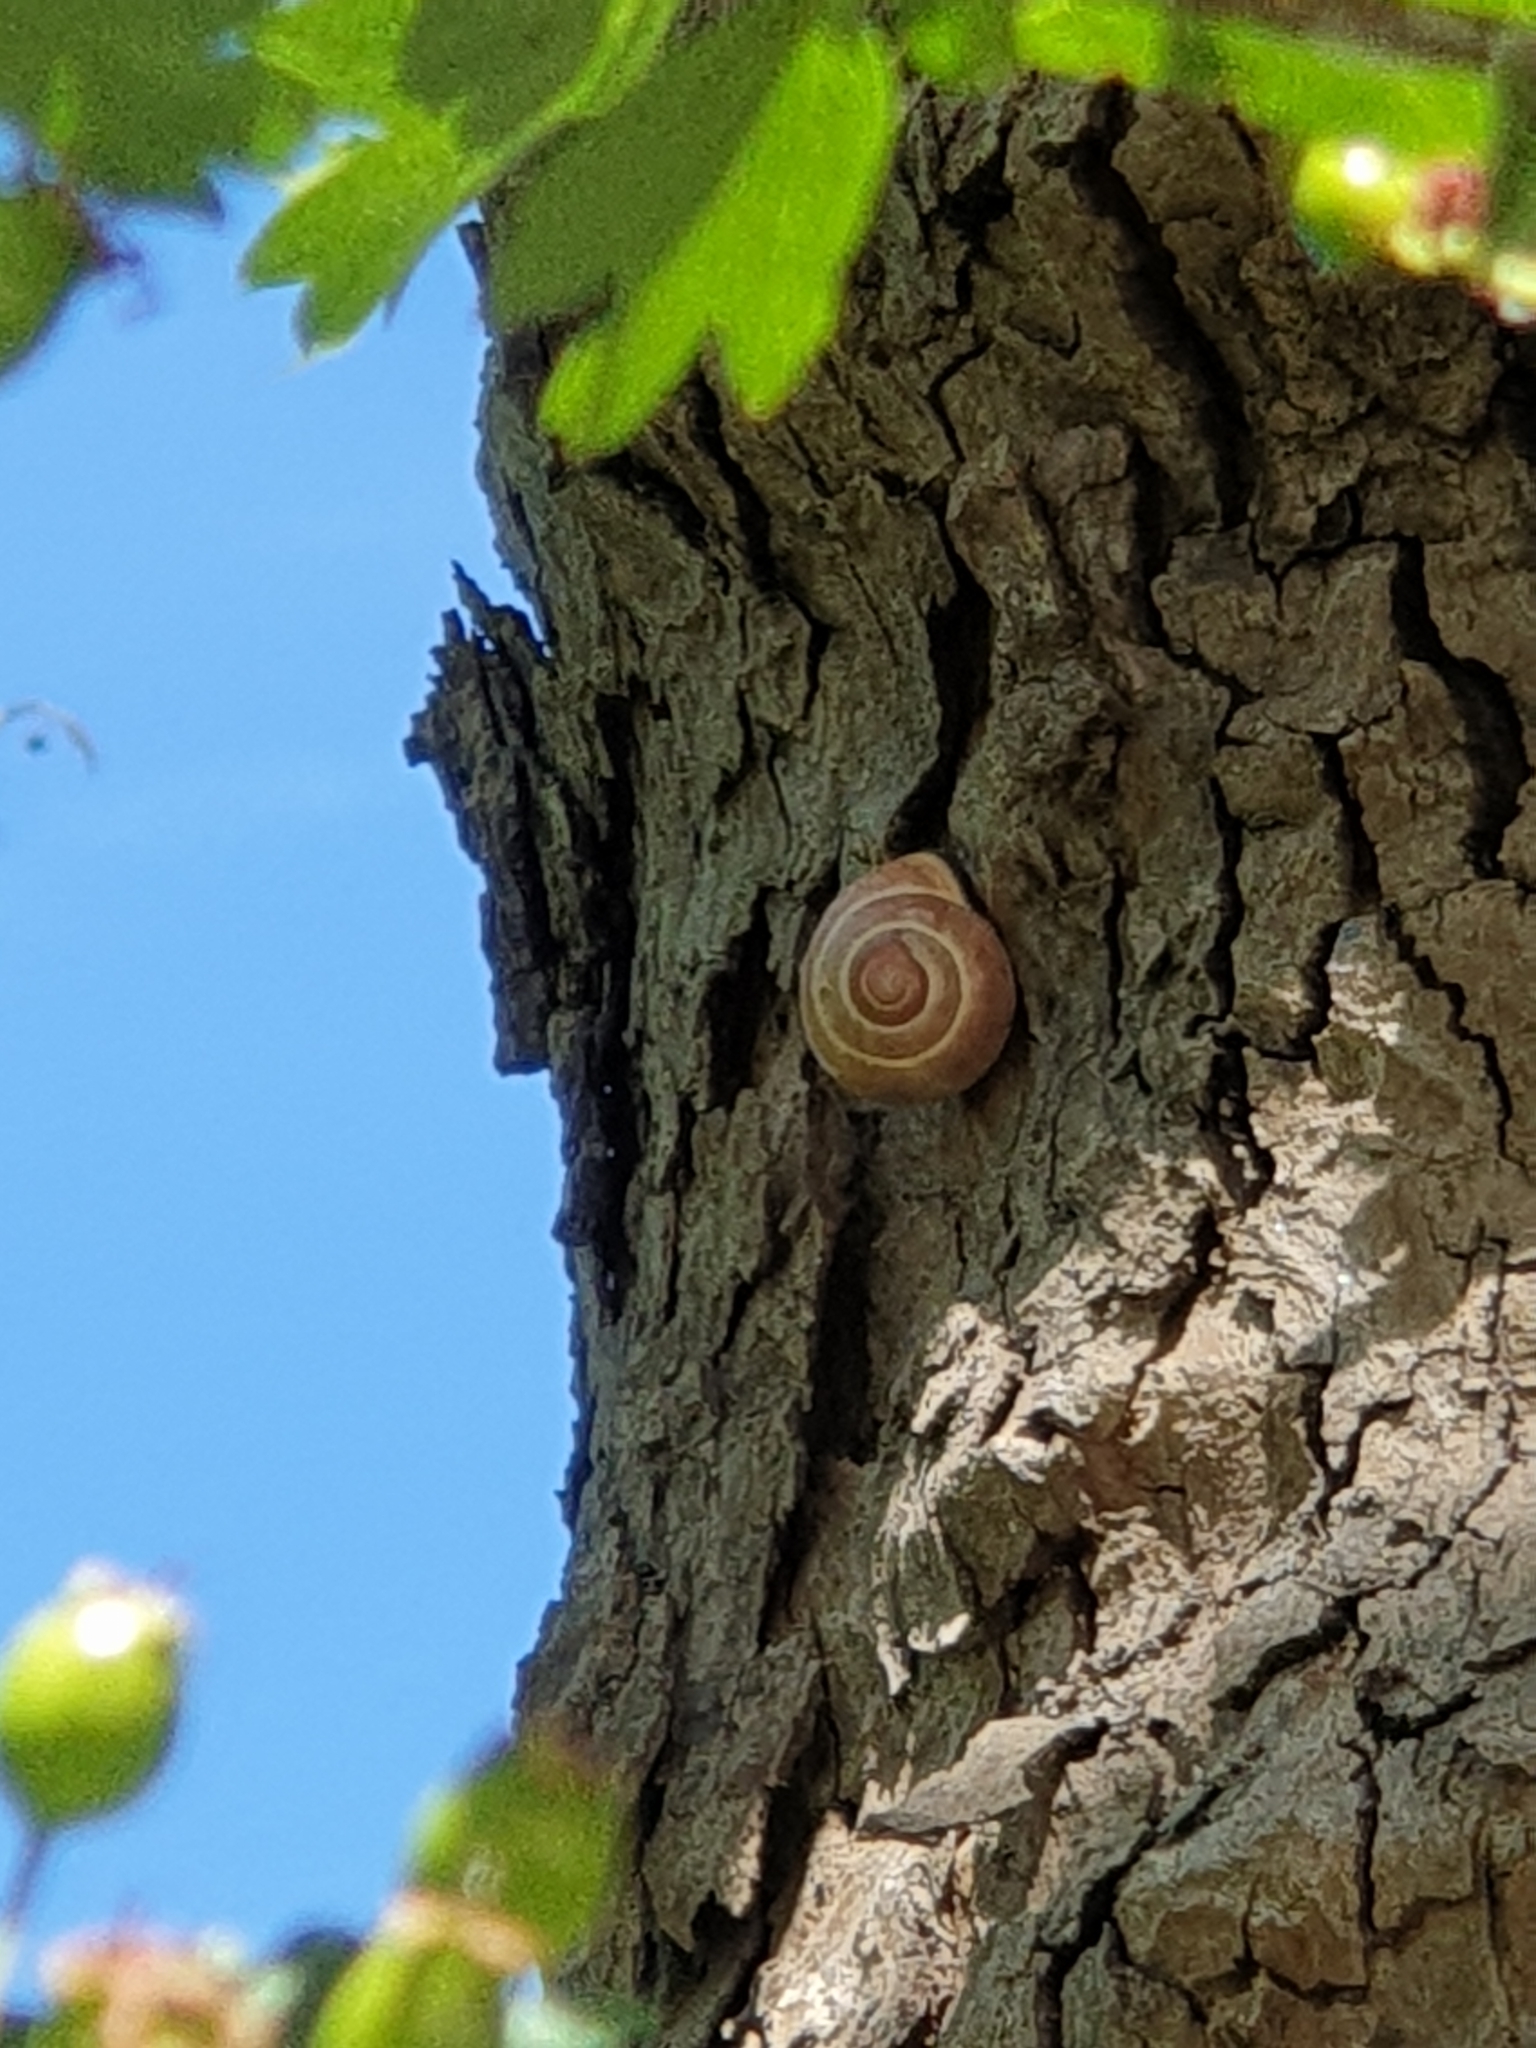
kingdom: Animalia
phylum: Mollusca
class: Gastropoda
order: Stylommatophora
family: Helicidae
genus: Cepaea
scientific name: Cepaea nemoralis
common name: Grovesnail
